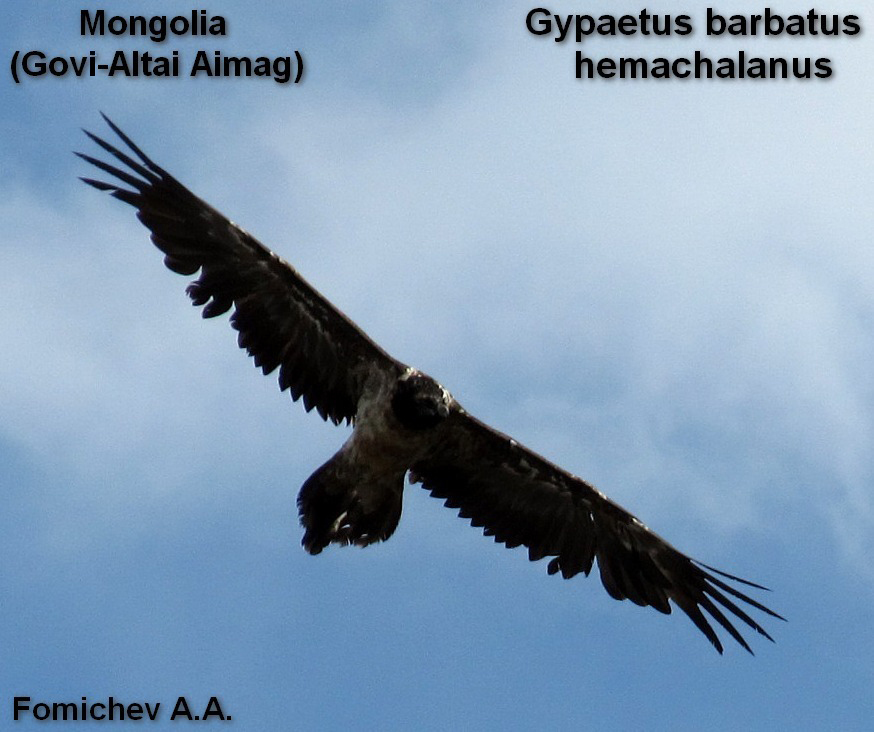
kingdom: Animalia
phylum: Chordata
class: Aves
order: Accipitriformes
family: Accipitridae
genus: Gypaetus
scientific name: Gypaetus barbatus
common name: Bearded vulture
